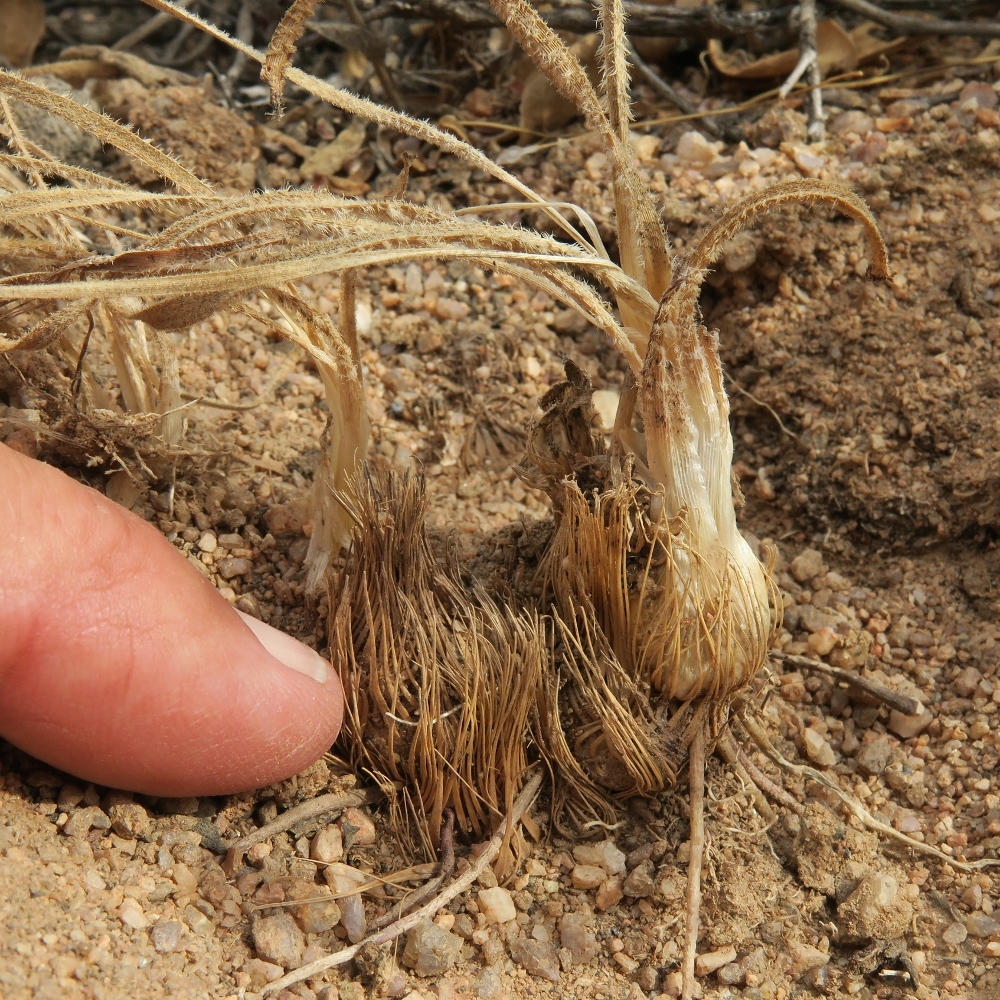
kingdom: Plantae
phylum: Tracheophyta
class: Liliopsida
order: Asparagales
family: Asparagaceae
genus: Chlorophytum
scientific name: Chlorophytum asperum
